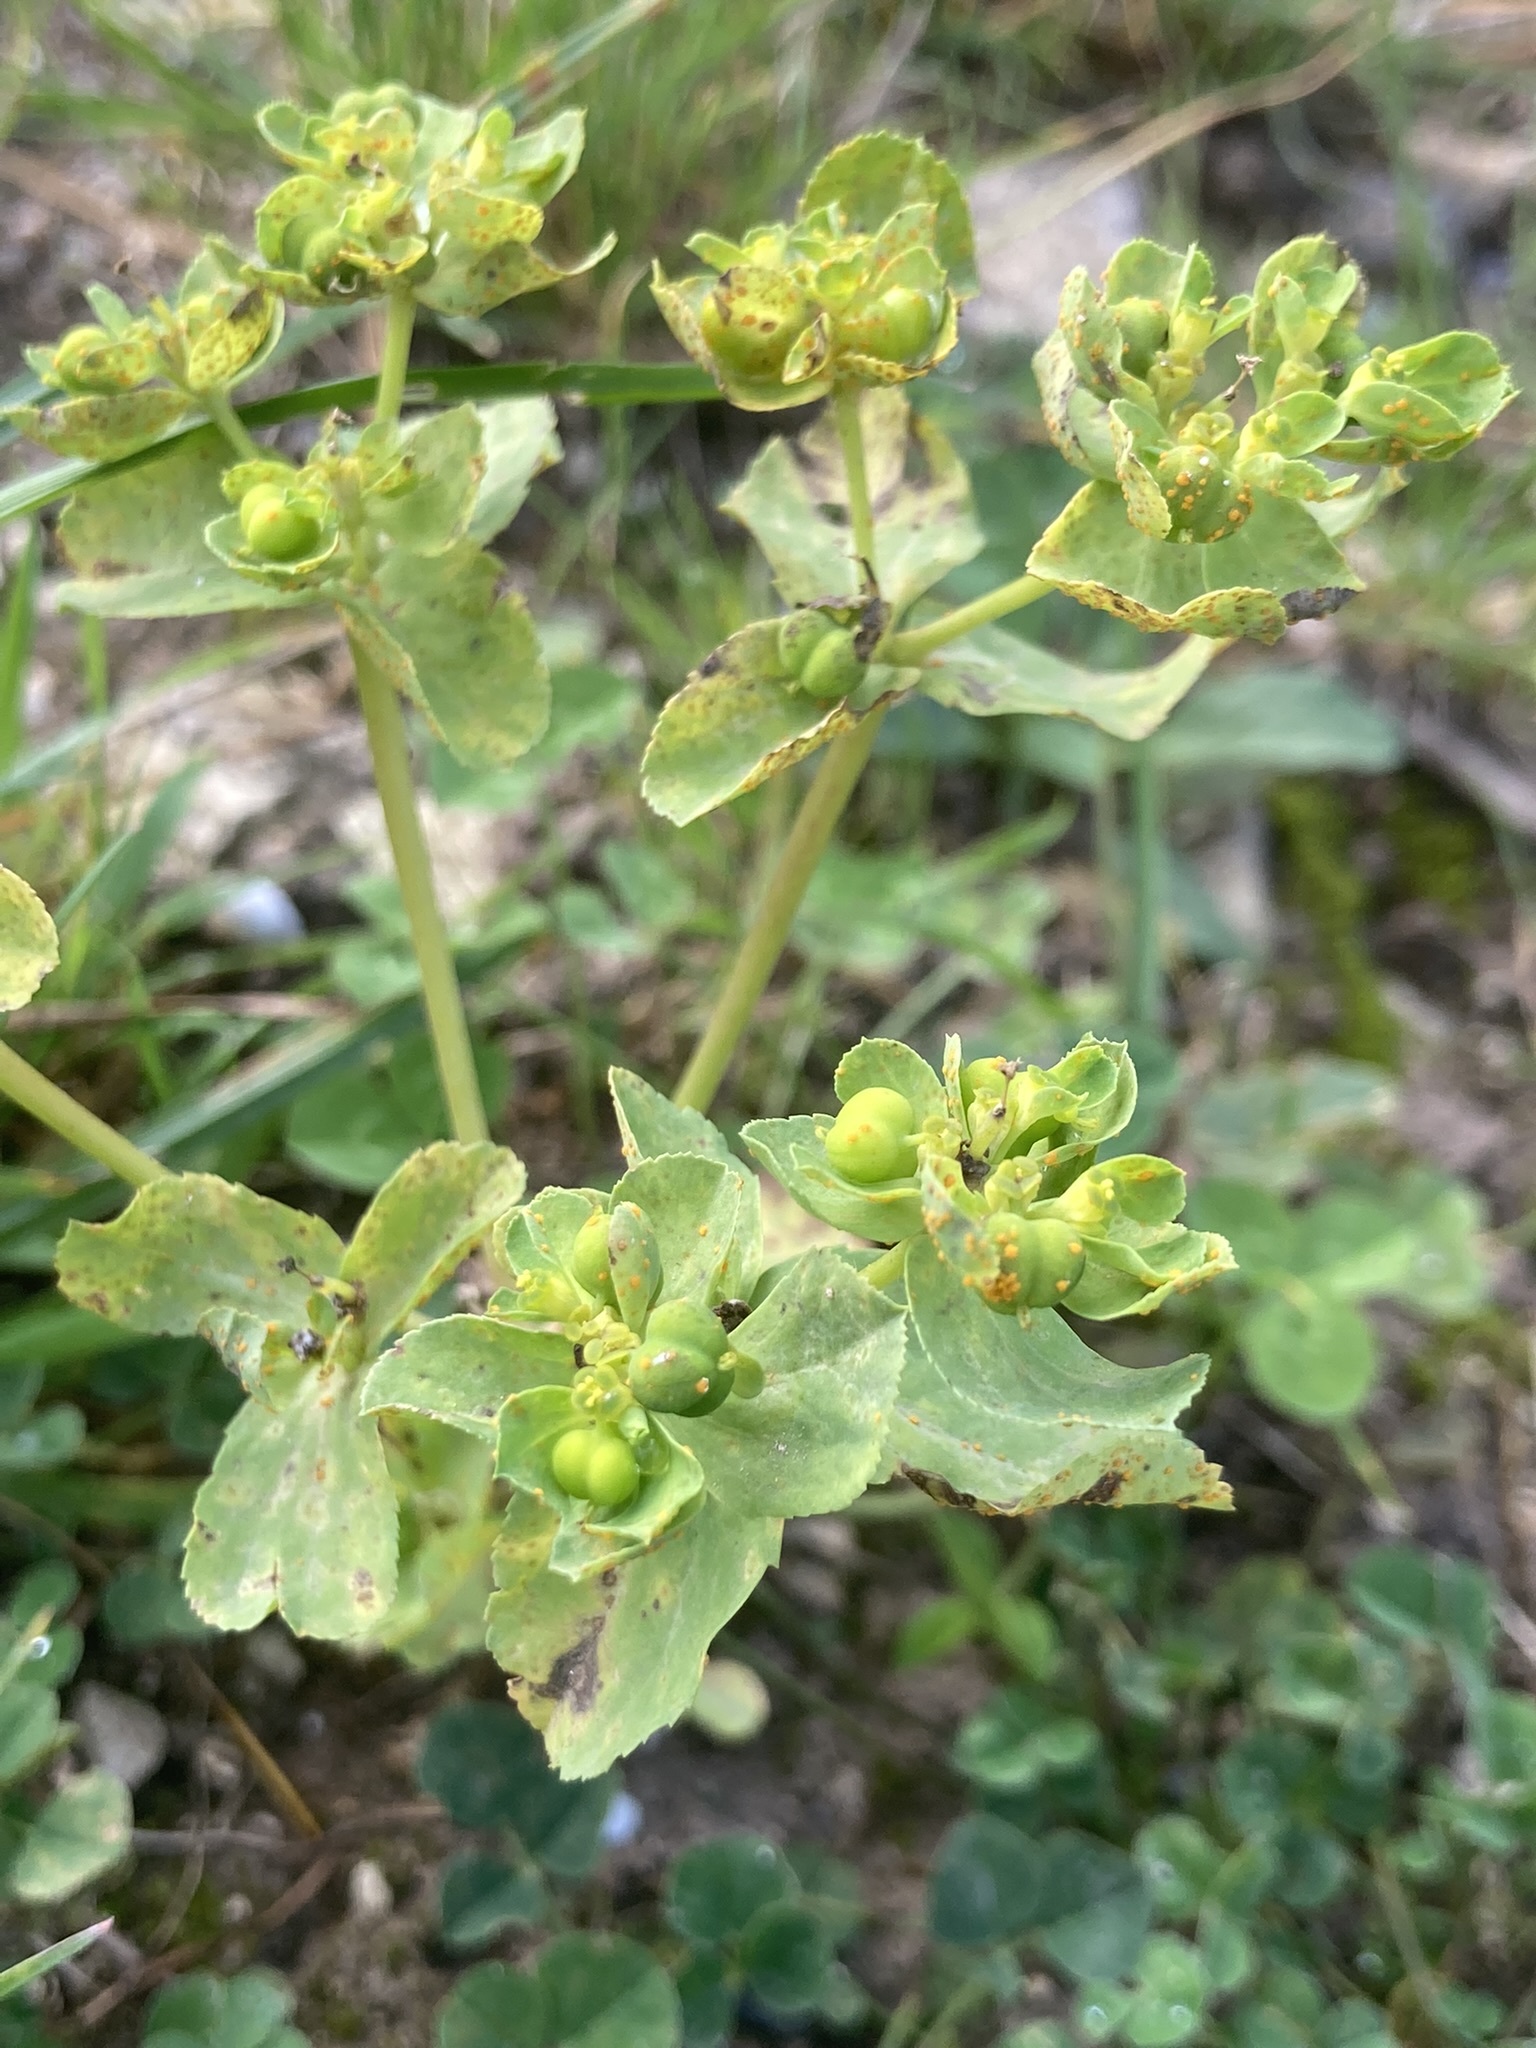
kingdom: Plantae
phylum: Tracheophyta
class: Magnoliopsida
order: Malpighiales
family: Euphorbiaceae
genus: Euphorbia
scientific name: Euphorbia helioscopia
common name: Sun spurge
